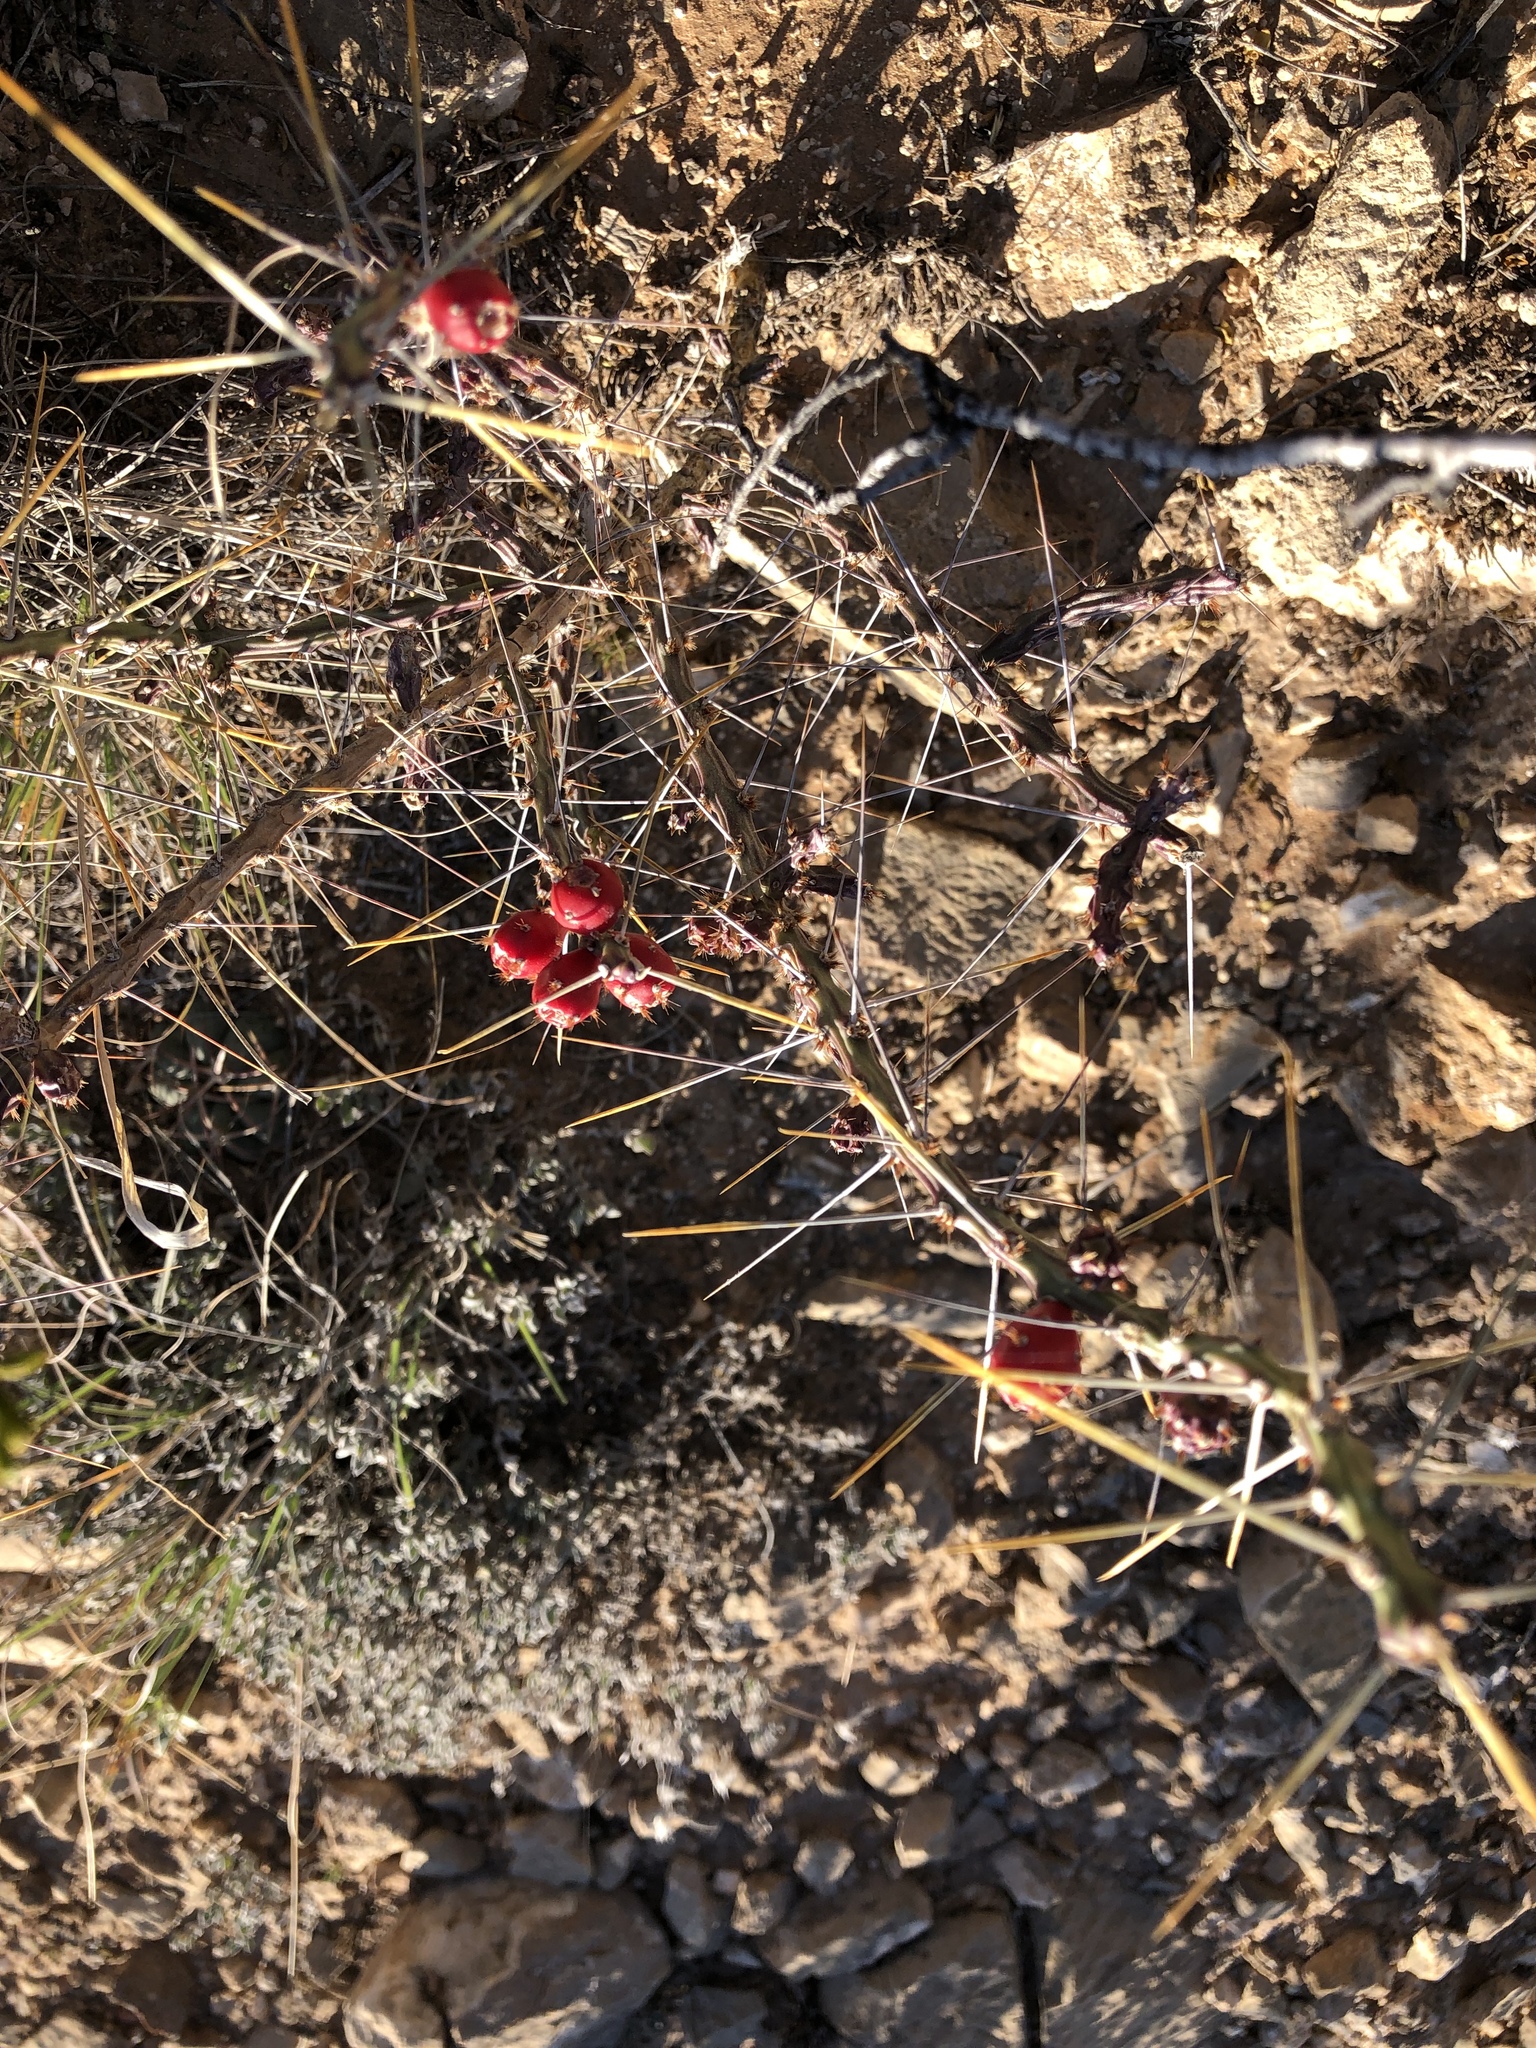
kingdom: Plantae
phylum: Tracheophyta
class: Magnoliopsida
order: Caryophyllales
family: Cactaceae
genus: Cylindropuntia
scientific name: Cylindropuntia leptocaulis
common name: Christmas cactus
